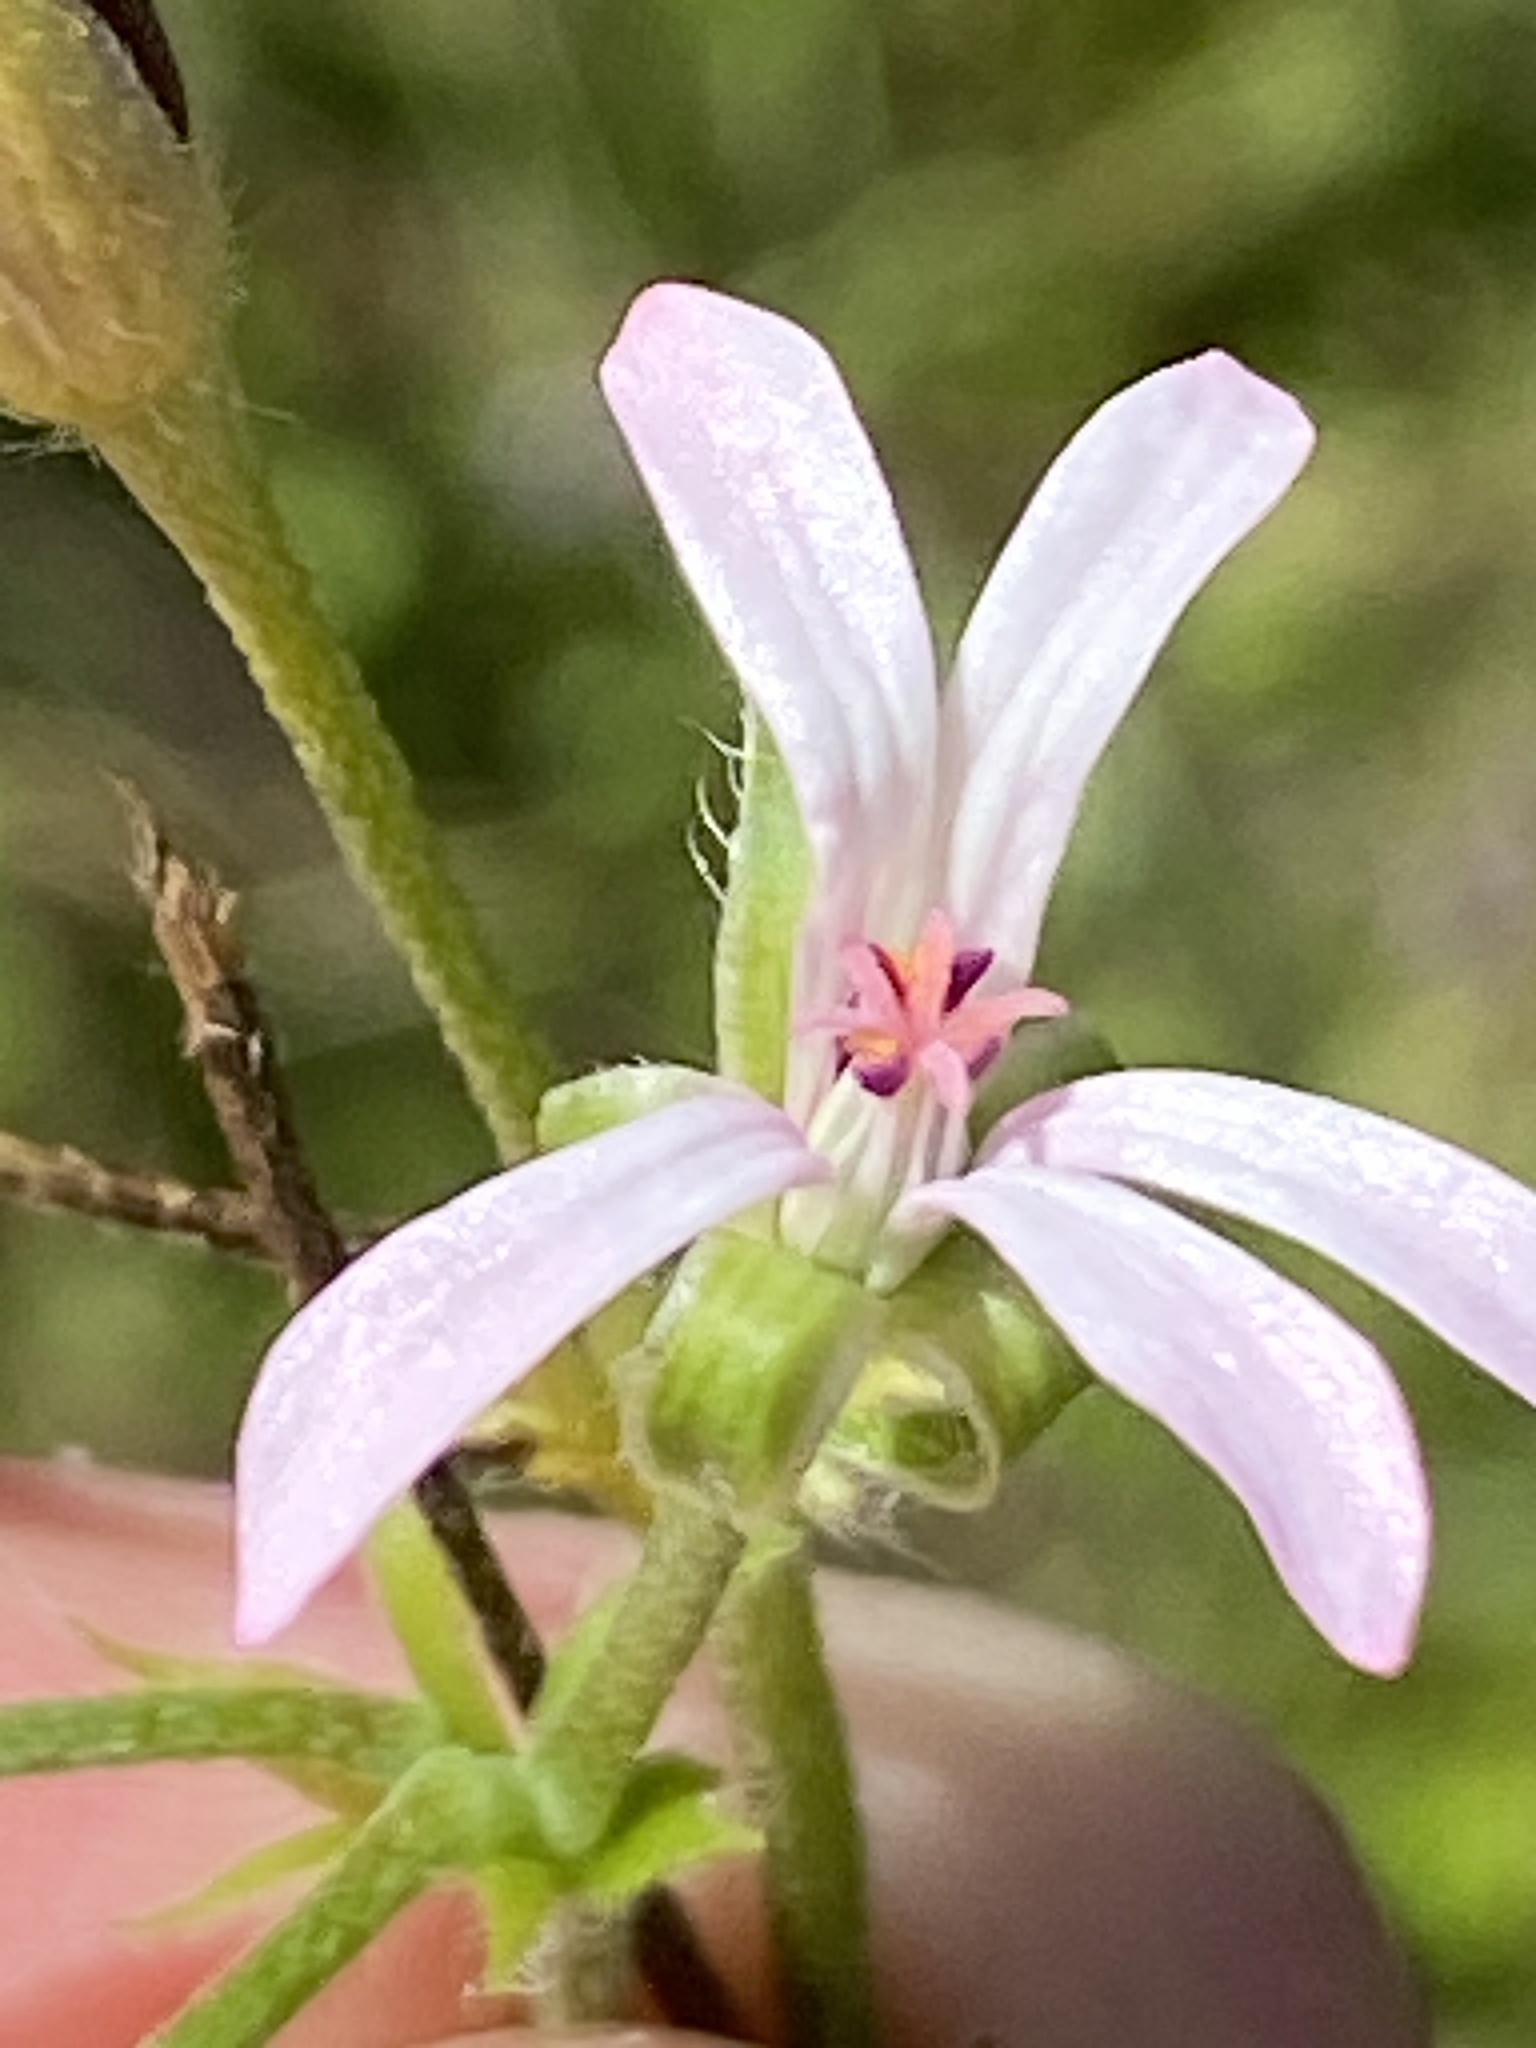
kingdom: Plantae
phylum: Tracheophyta
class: Magnoliopsida
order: Geraniales
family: Geraniaceae
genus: Pelargonium
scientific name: Pelargonium alchemilloides
